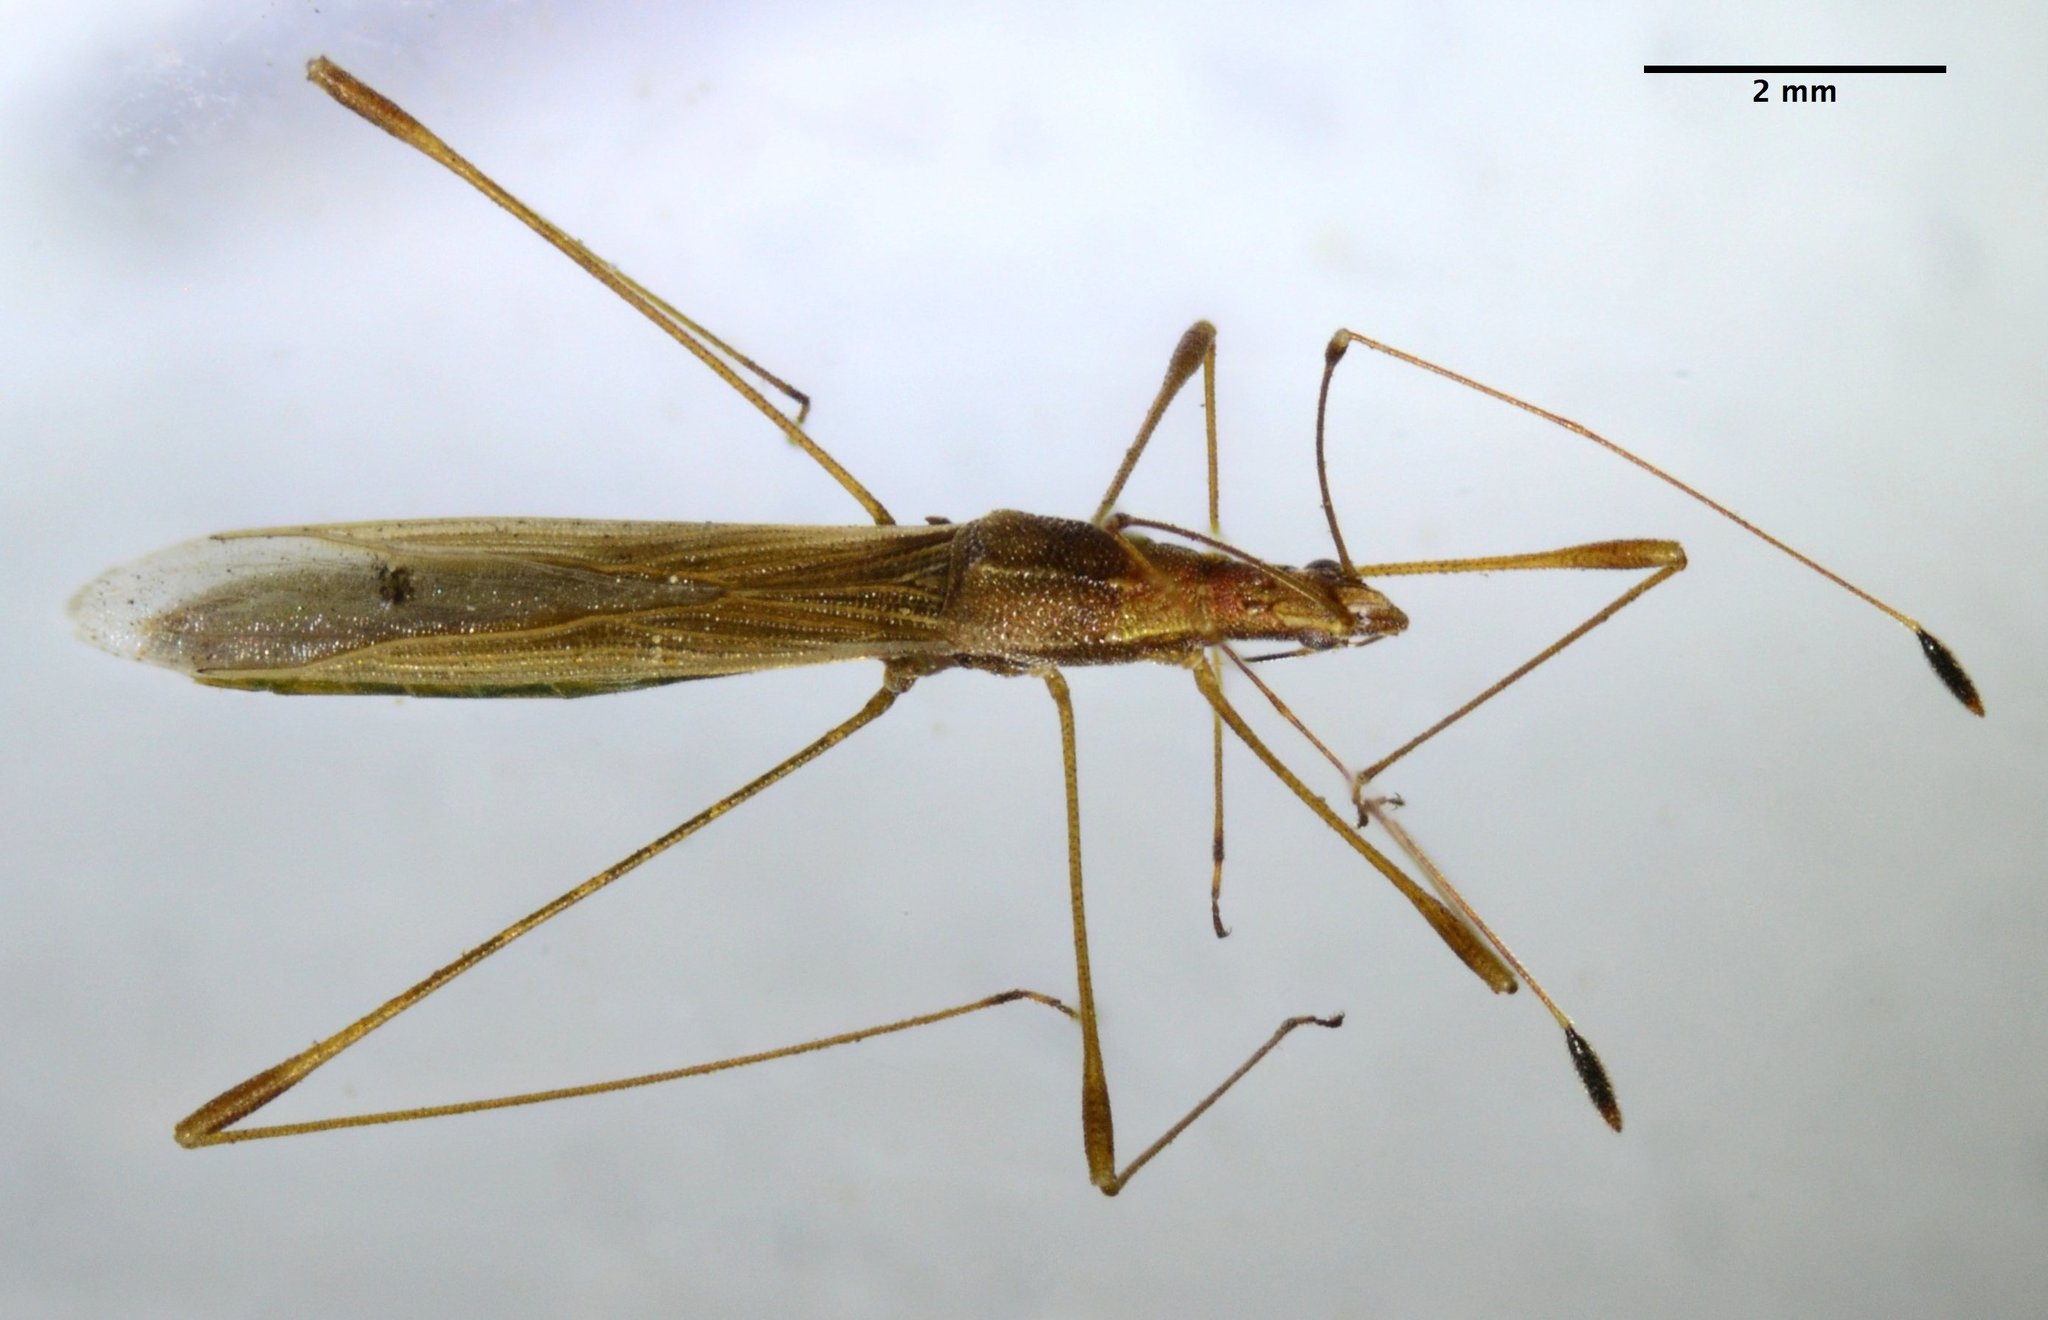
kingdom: Animalia
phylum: Arthropoda
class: Insecta
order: Hemiptera
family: Berytidae
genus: Neoneides
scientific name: Neoneides muticus
